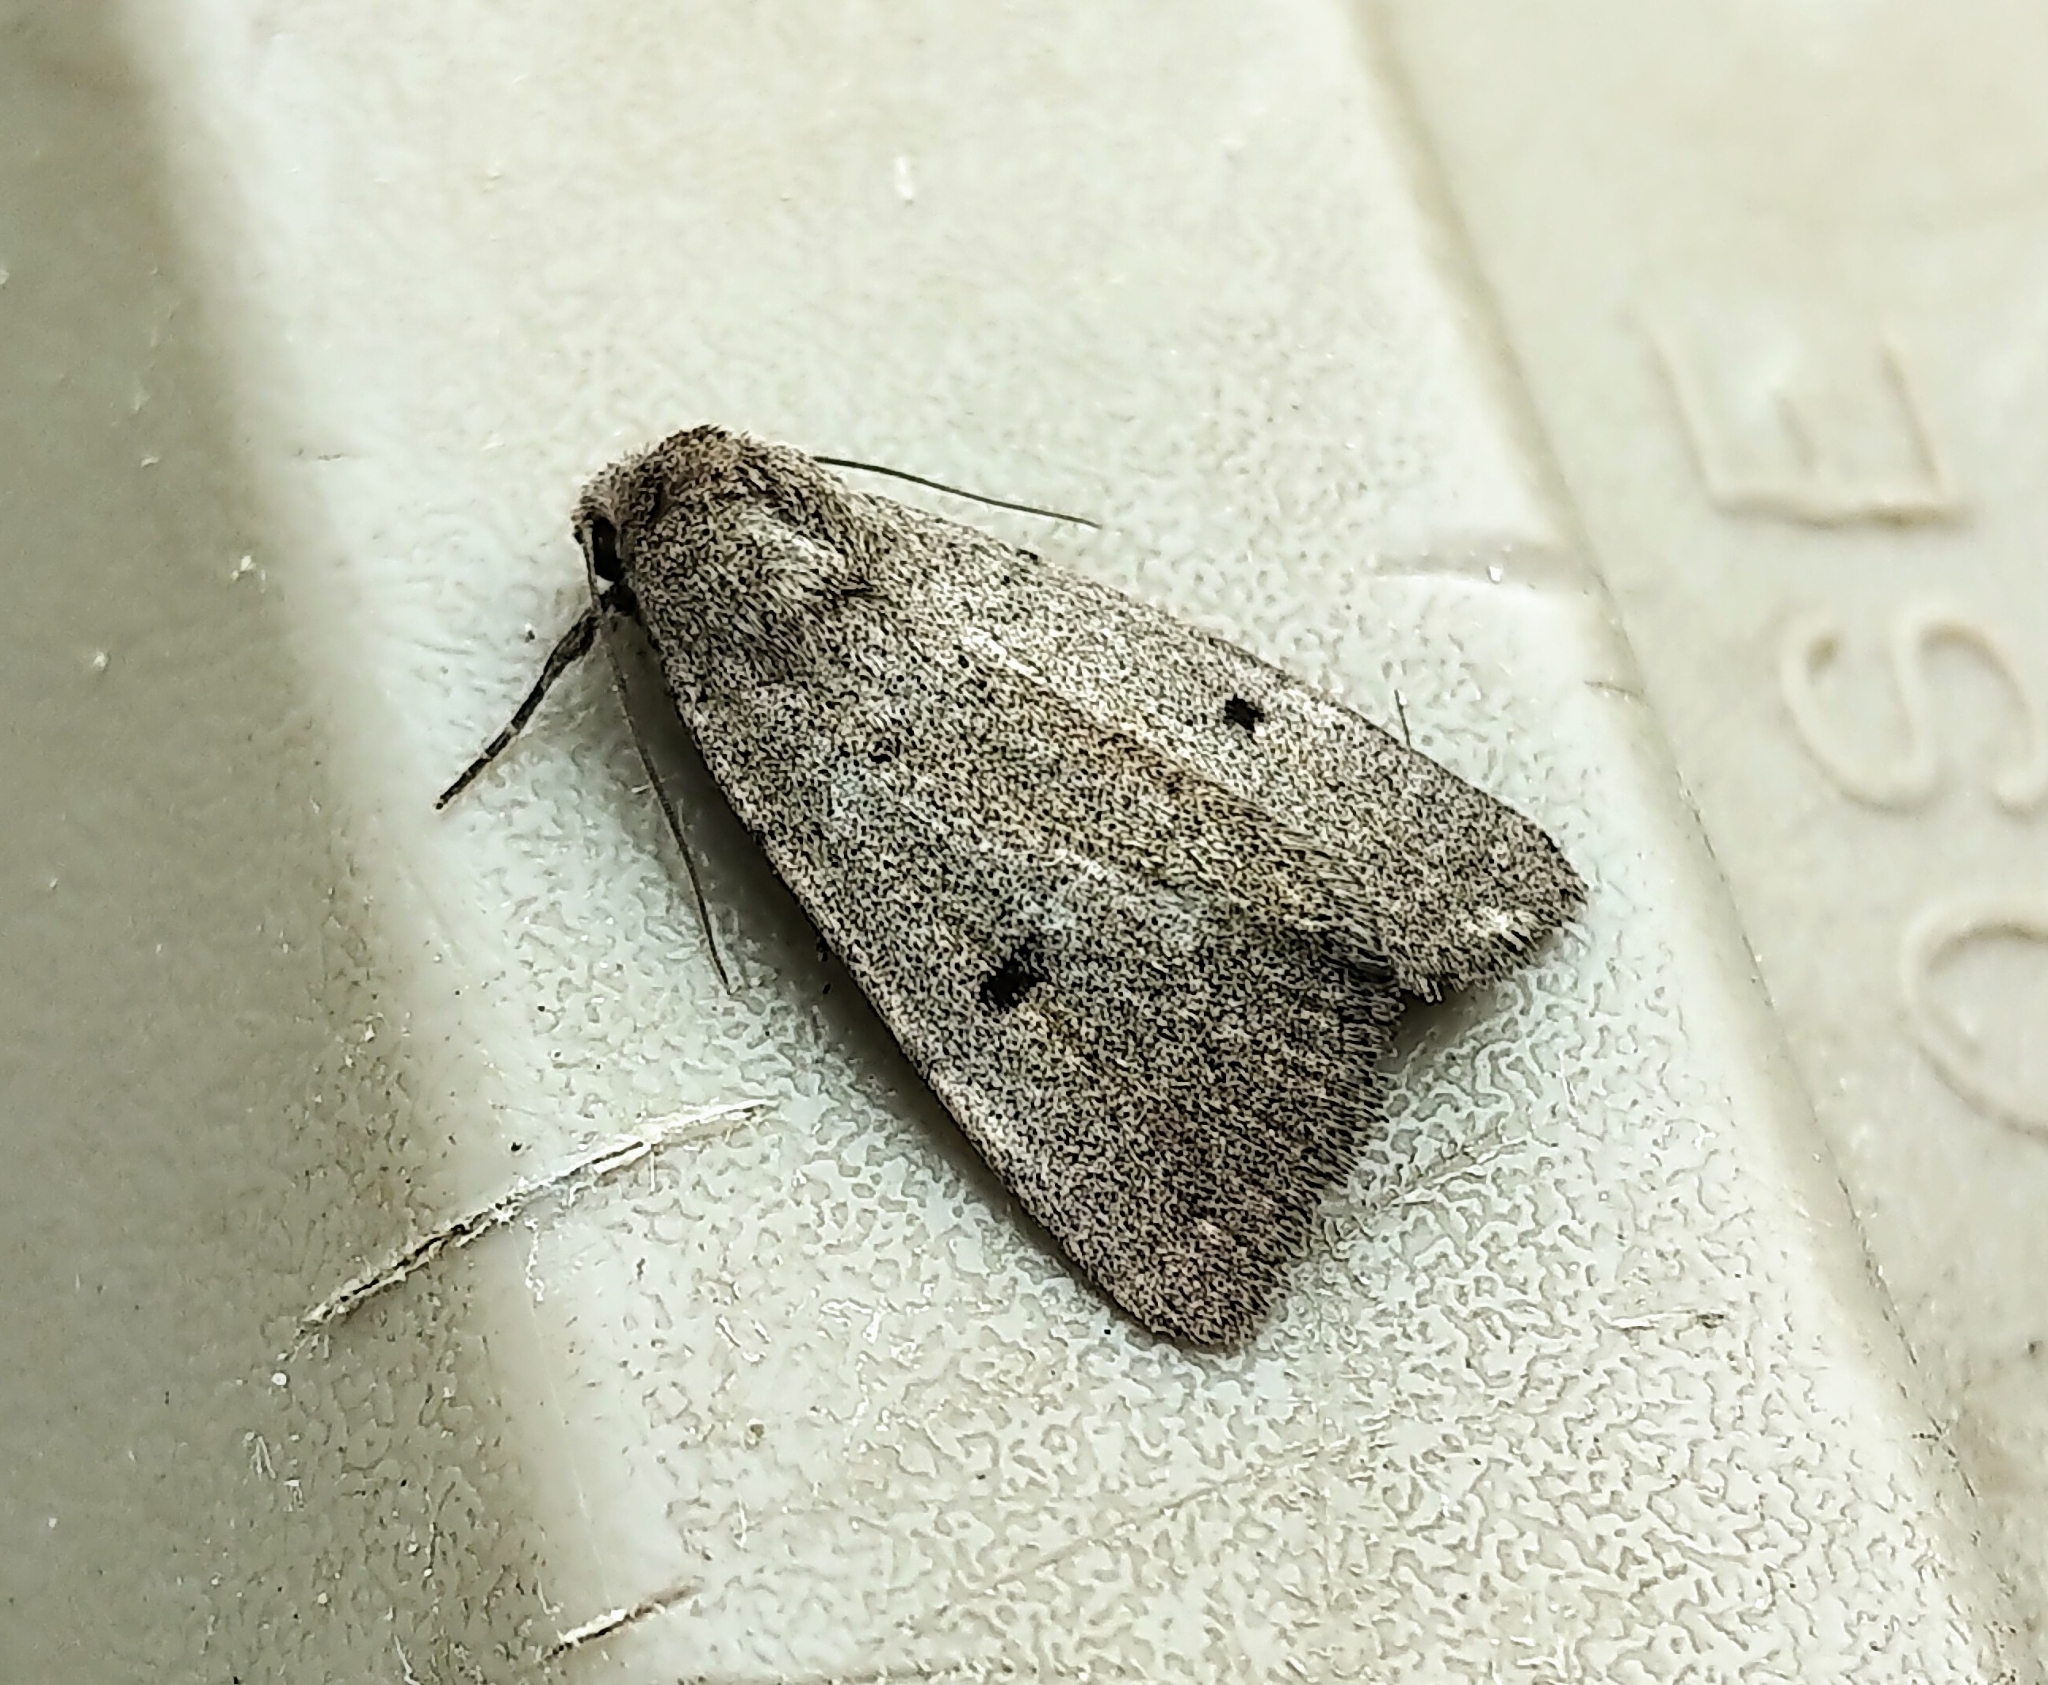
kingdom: Animalia
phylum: Arthropoda
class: Insecta
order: Lepidoptera
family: Noctuidae
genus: Caradrina
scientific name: Caradrina meralis
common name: Sand quaker
